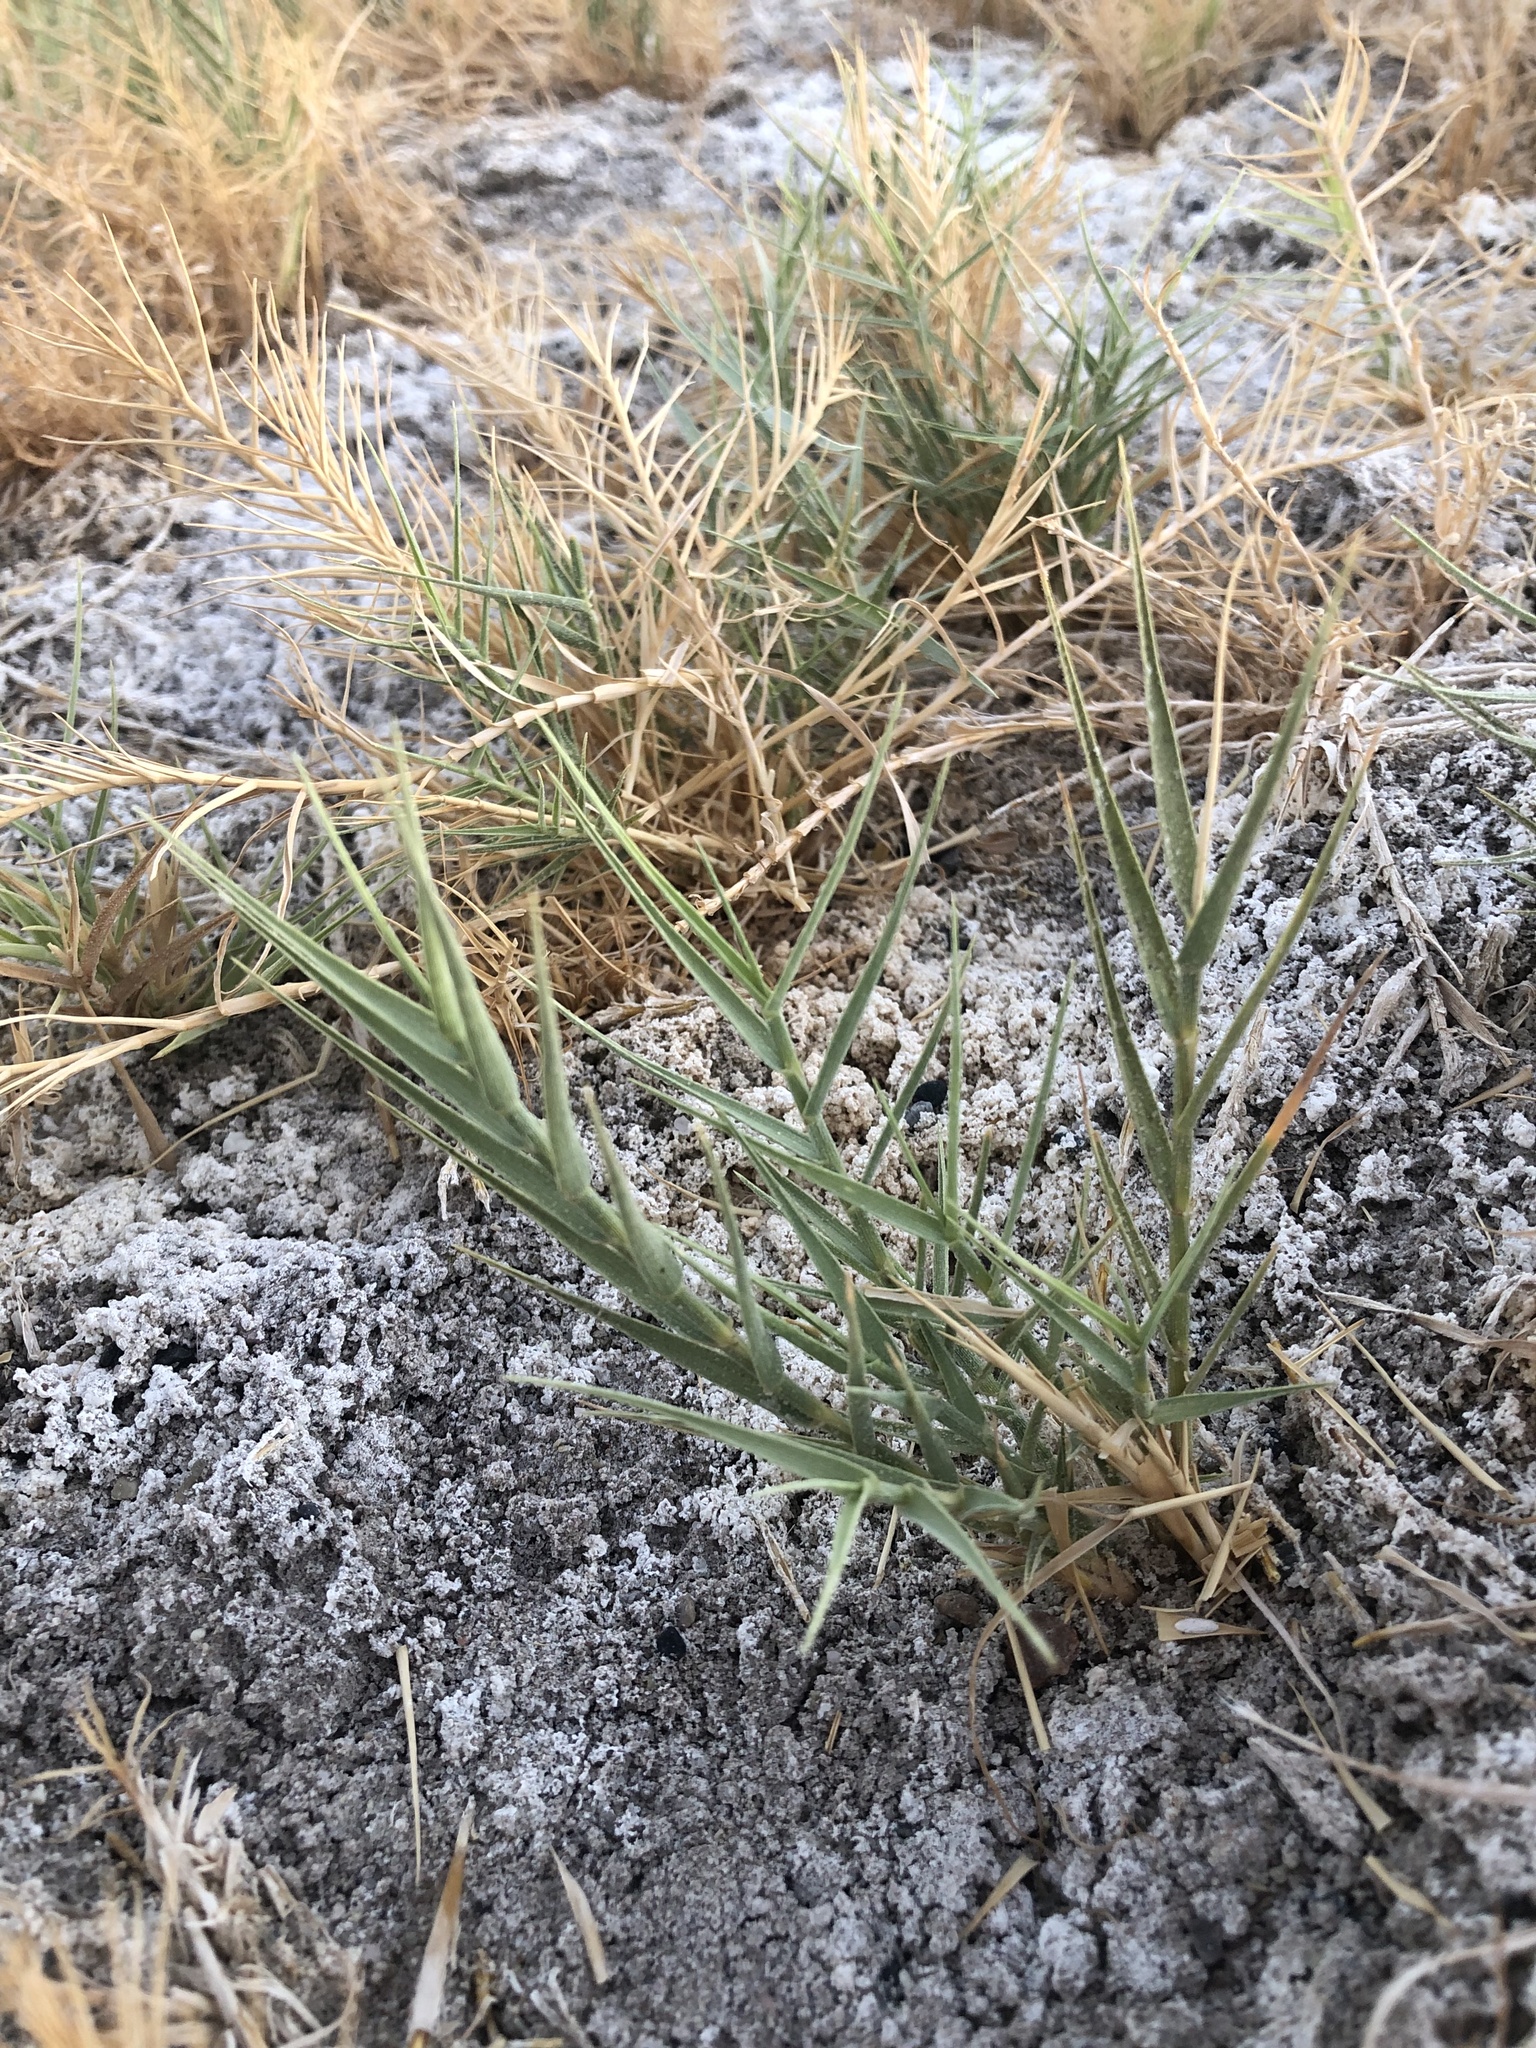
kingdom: Plantae
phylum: Tracheophyta
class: Liliopsida
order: Poales
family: Poaceae
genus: Distichlis
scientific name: Distichlis spicata
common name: Saltgrass
